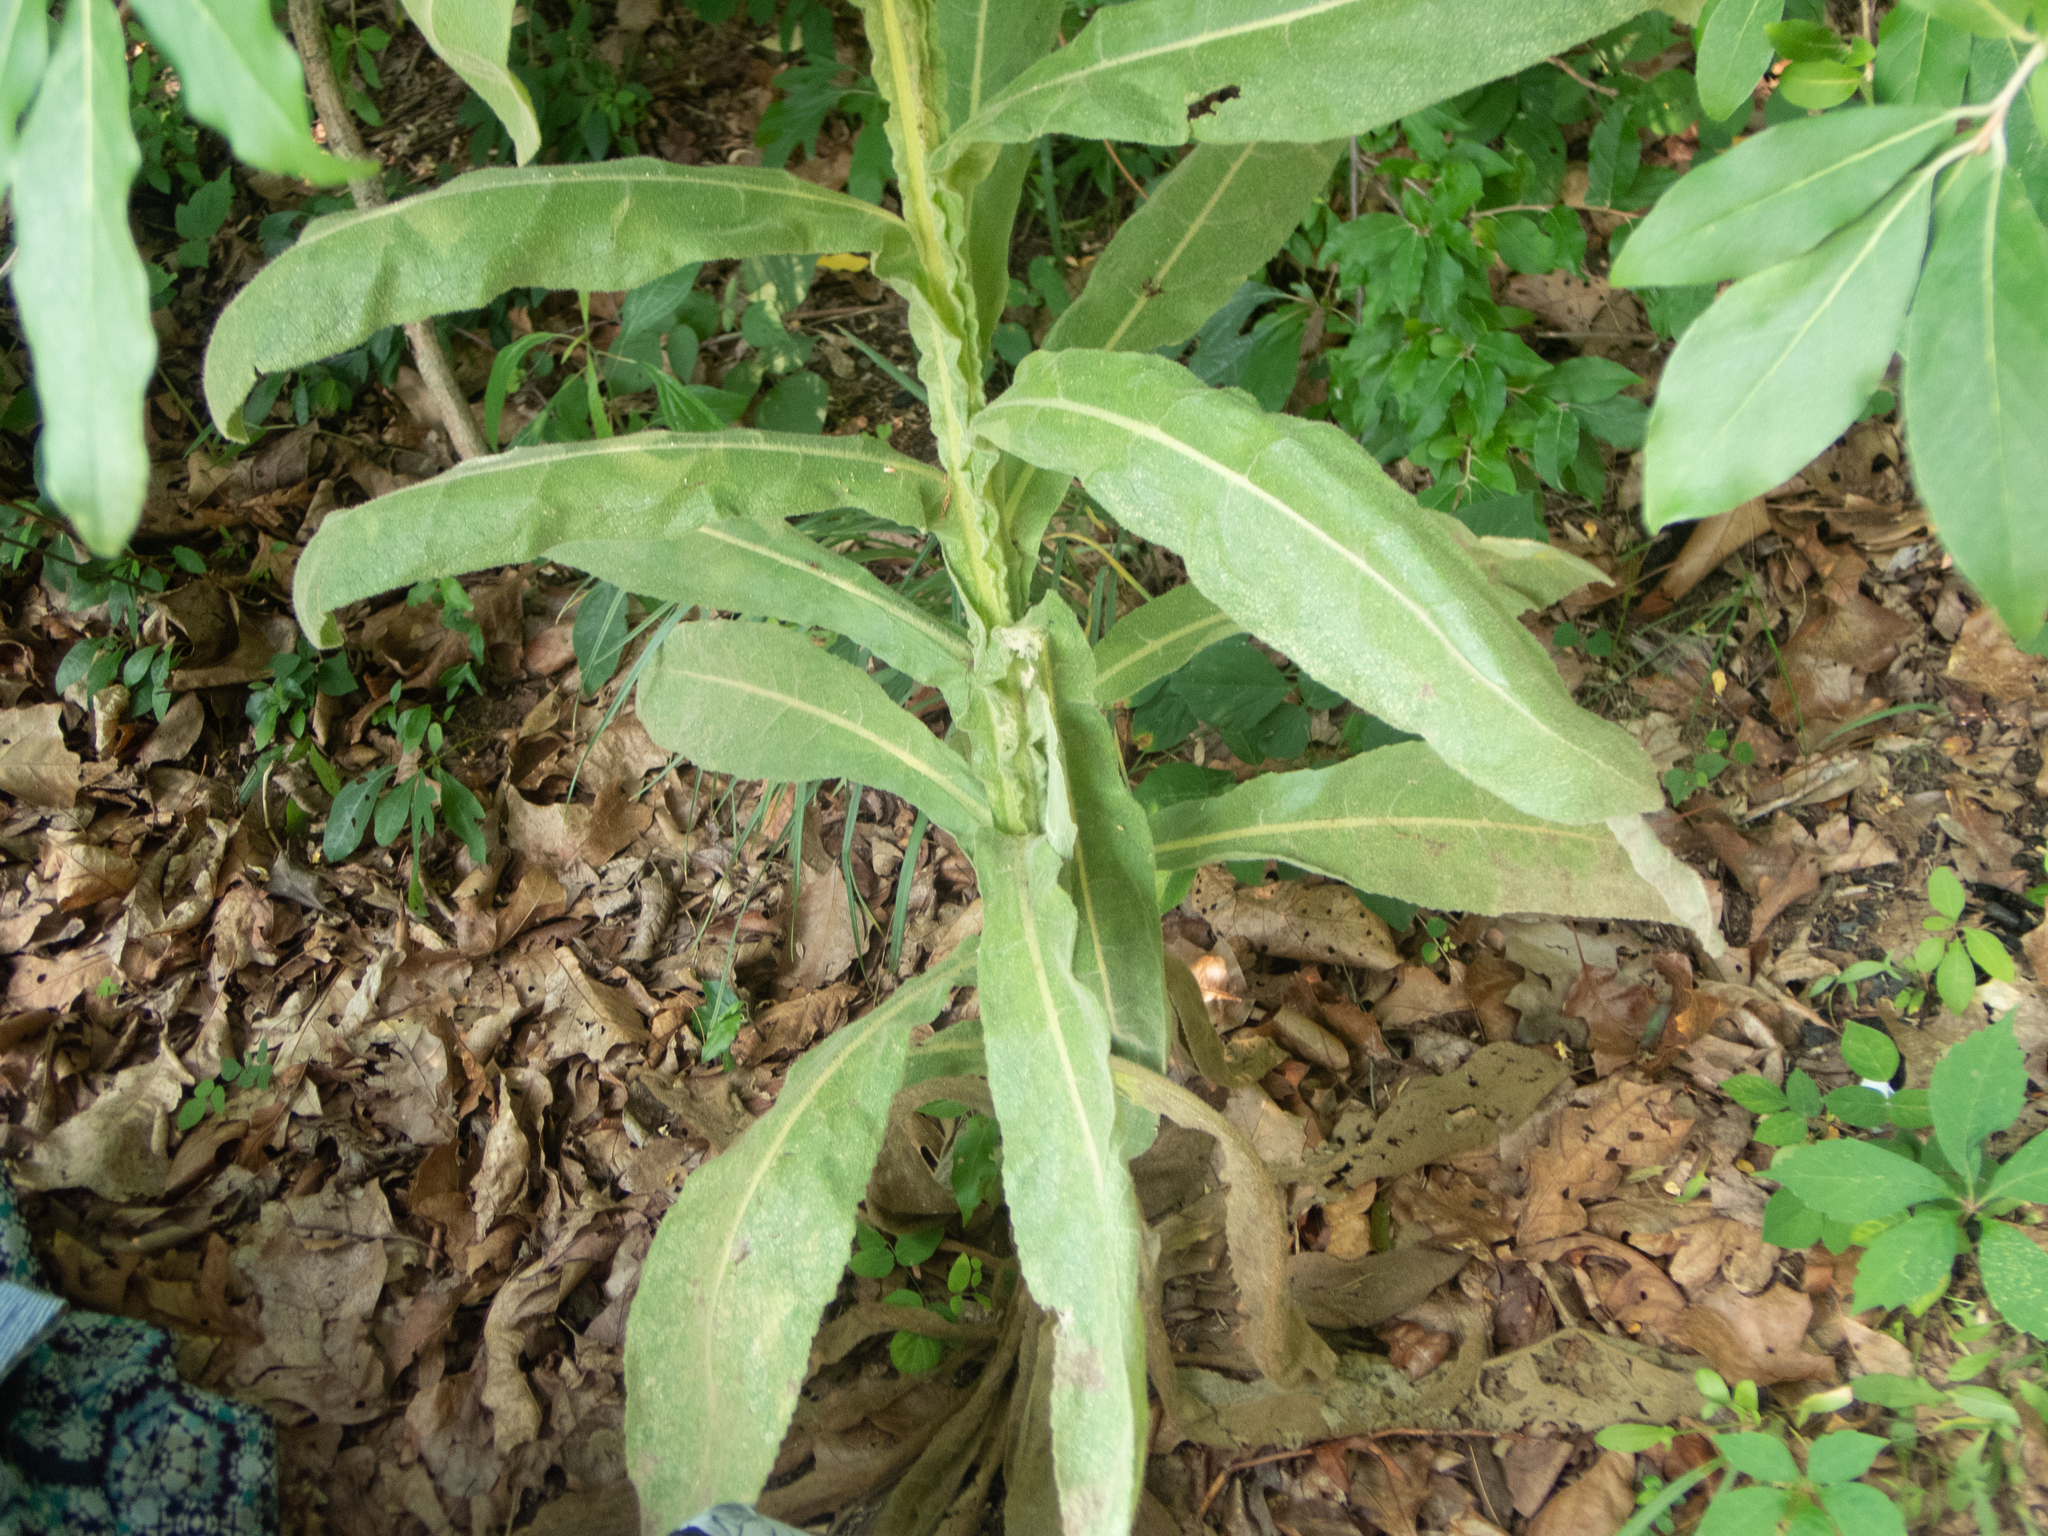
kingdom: Plantae
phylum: Tracheophyta
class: Magnoliopsida
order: Lamiales
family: Scrophulariaceae
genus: Verbascum
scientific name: Verbascum thapsus
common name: Common mullein
